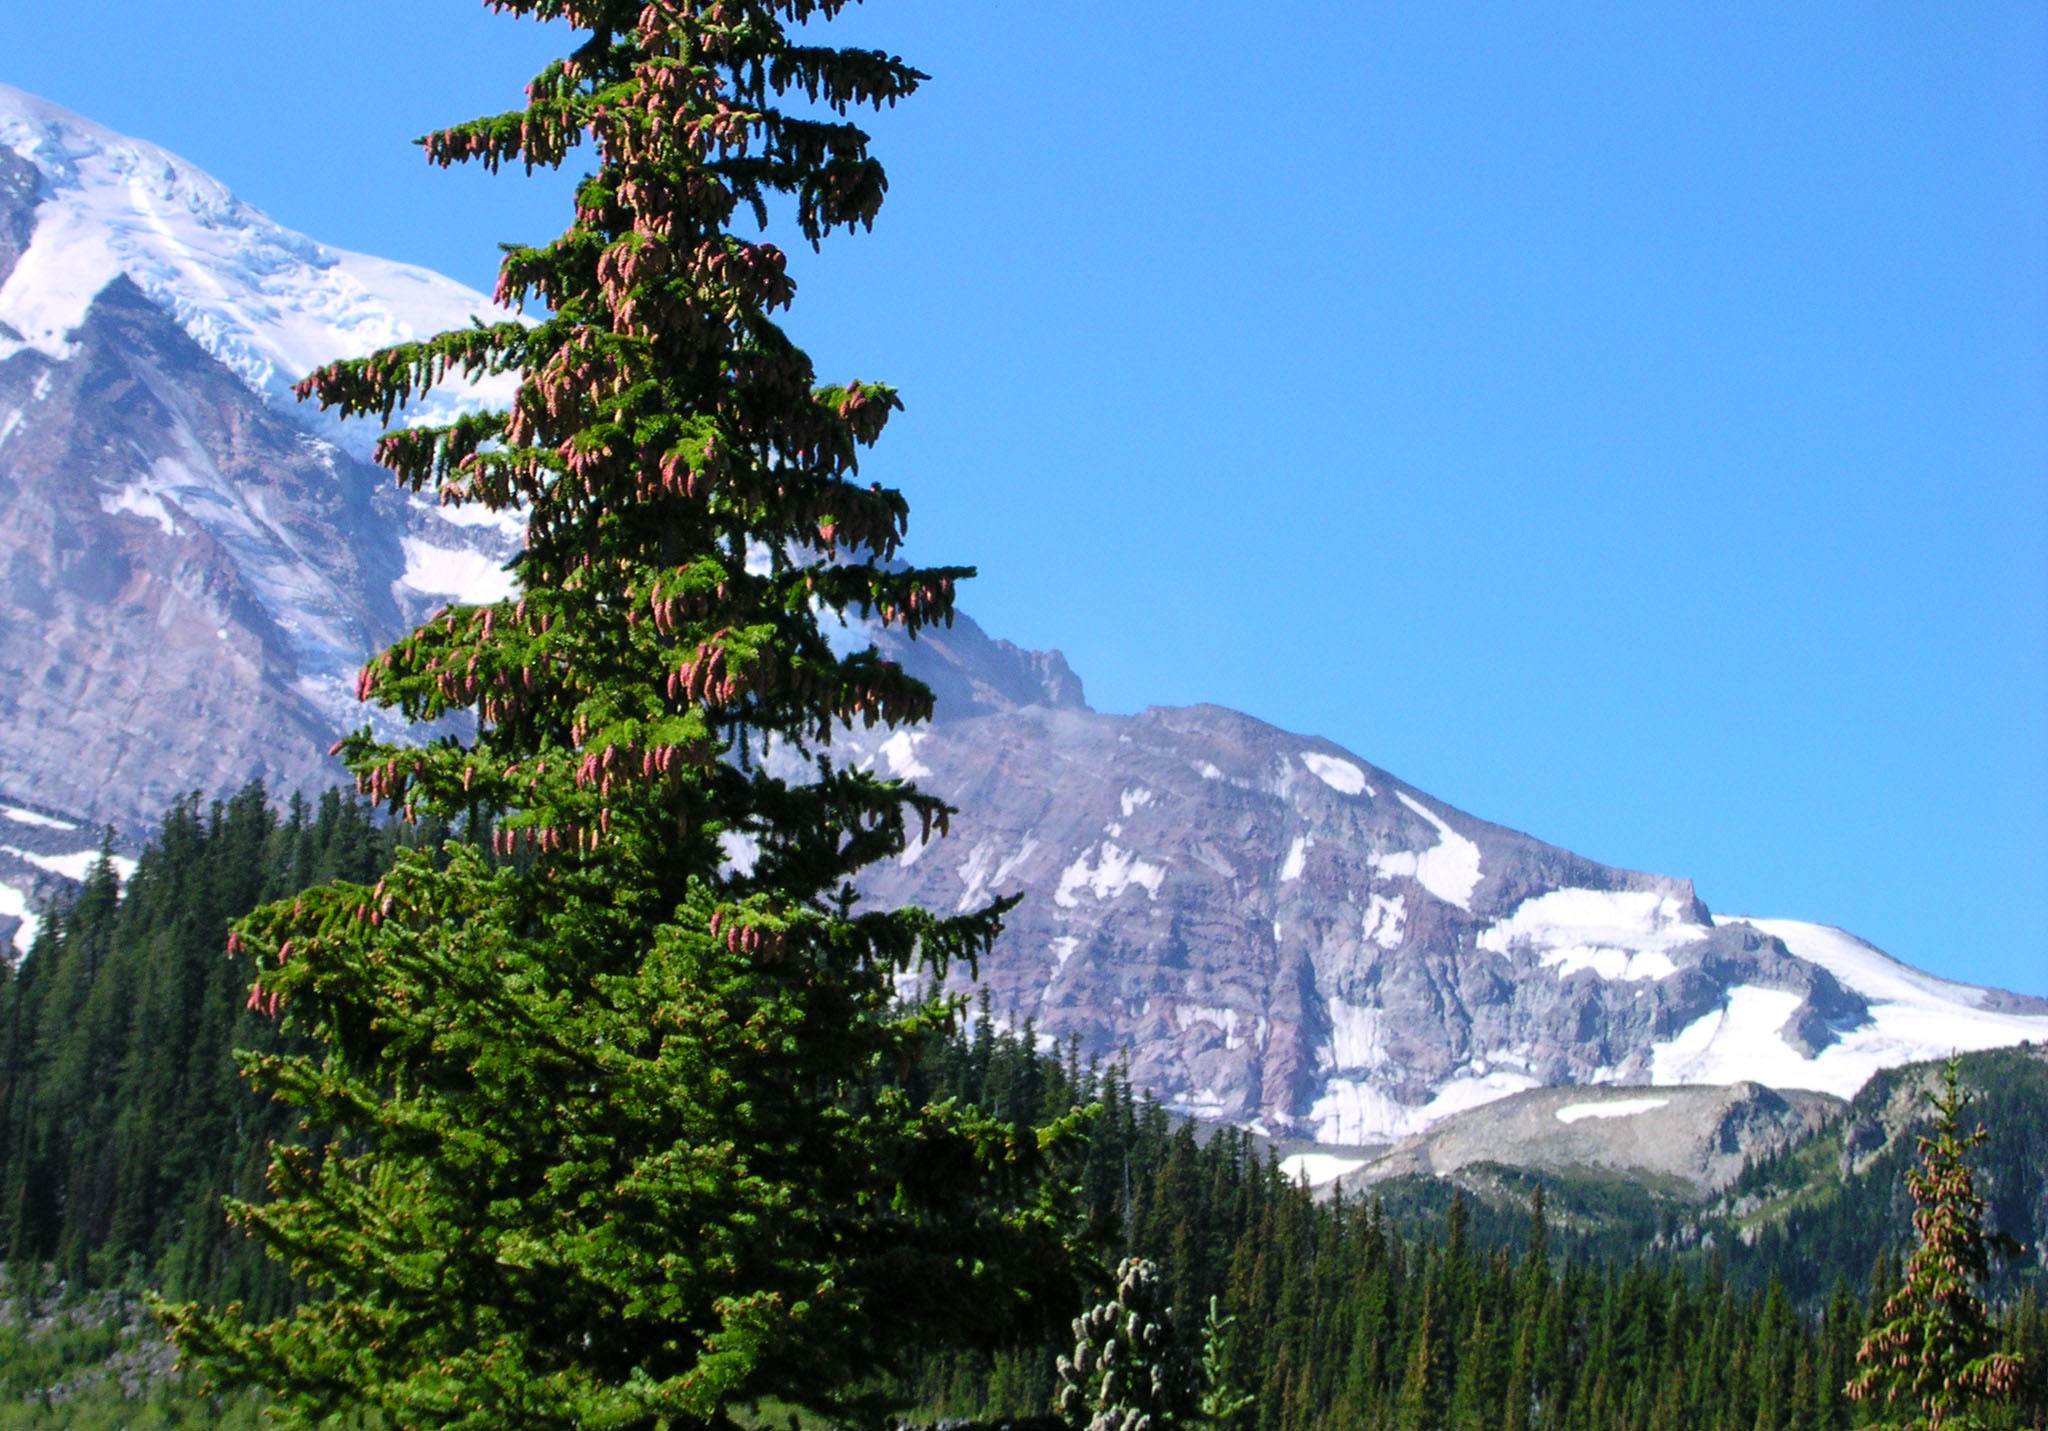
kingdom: Plantae
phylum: Tracheophyta
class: Pinopsida
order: Pinales
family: Pinaceae
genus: Picea
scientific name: Picea engelmannii
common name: Engelmann spruce
